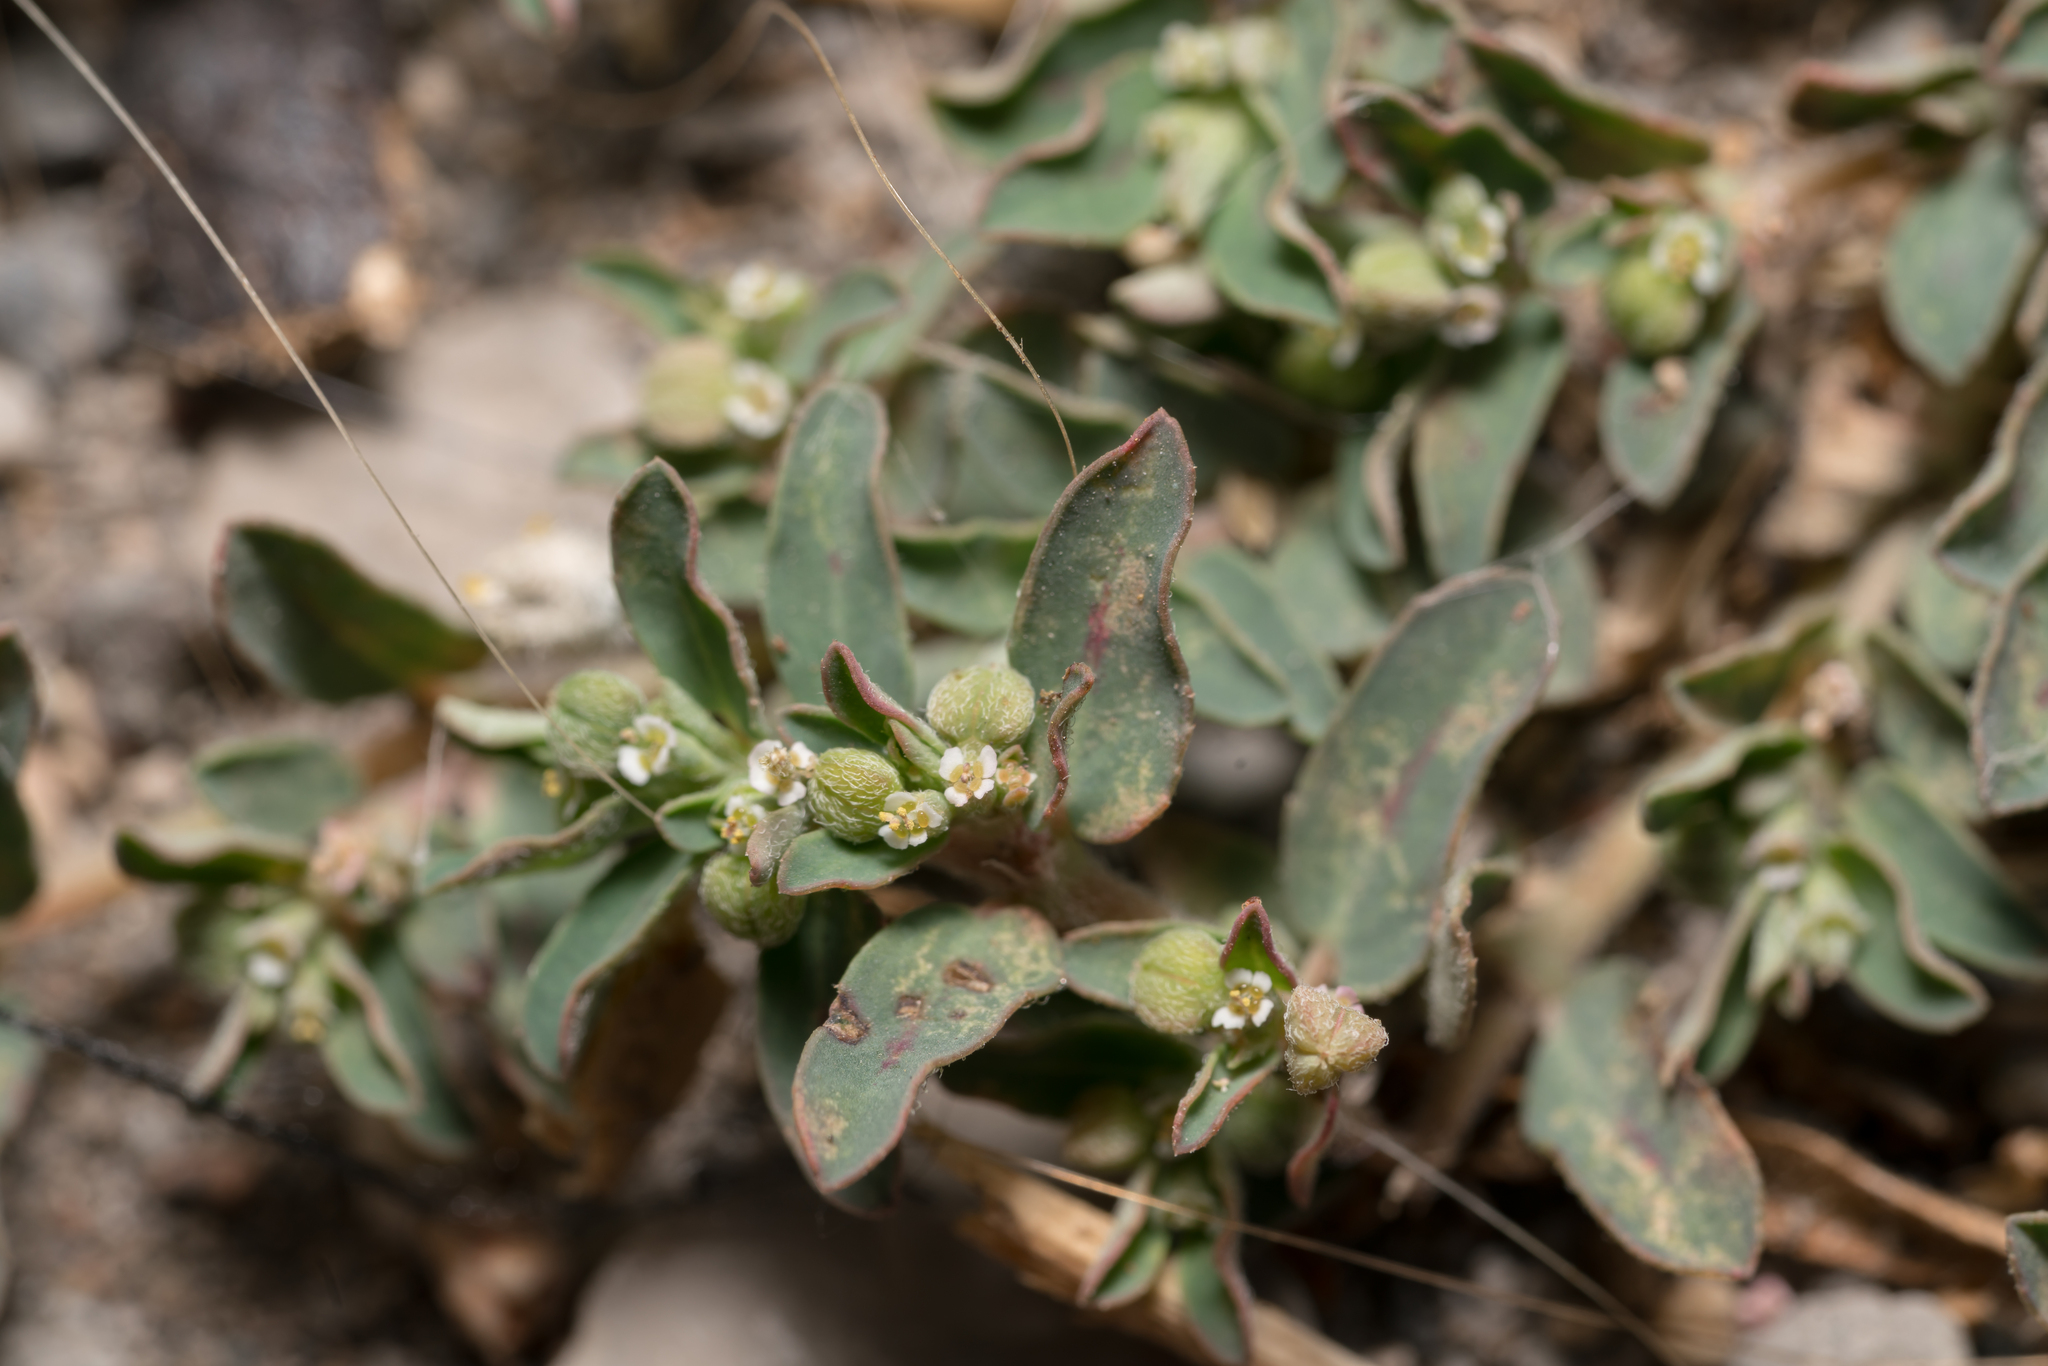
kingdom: Plantae
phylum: Tracheophyta
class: Magnoliopsida
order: Malpighiales
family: Euphorbiaceae
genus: Euphorbia
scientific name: Euphorbia maculata
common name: Spotted spurge
